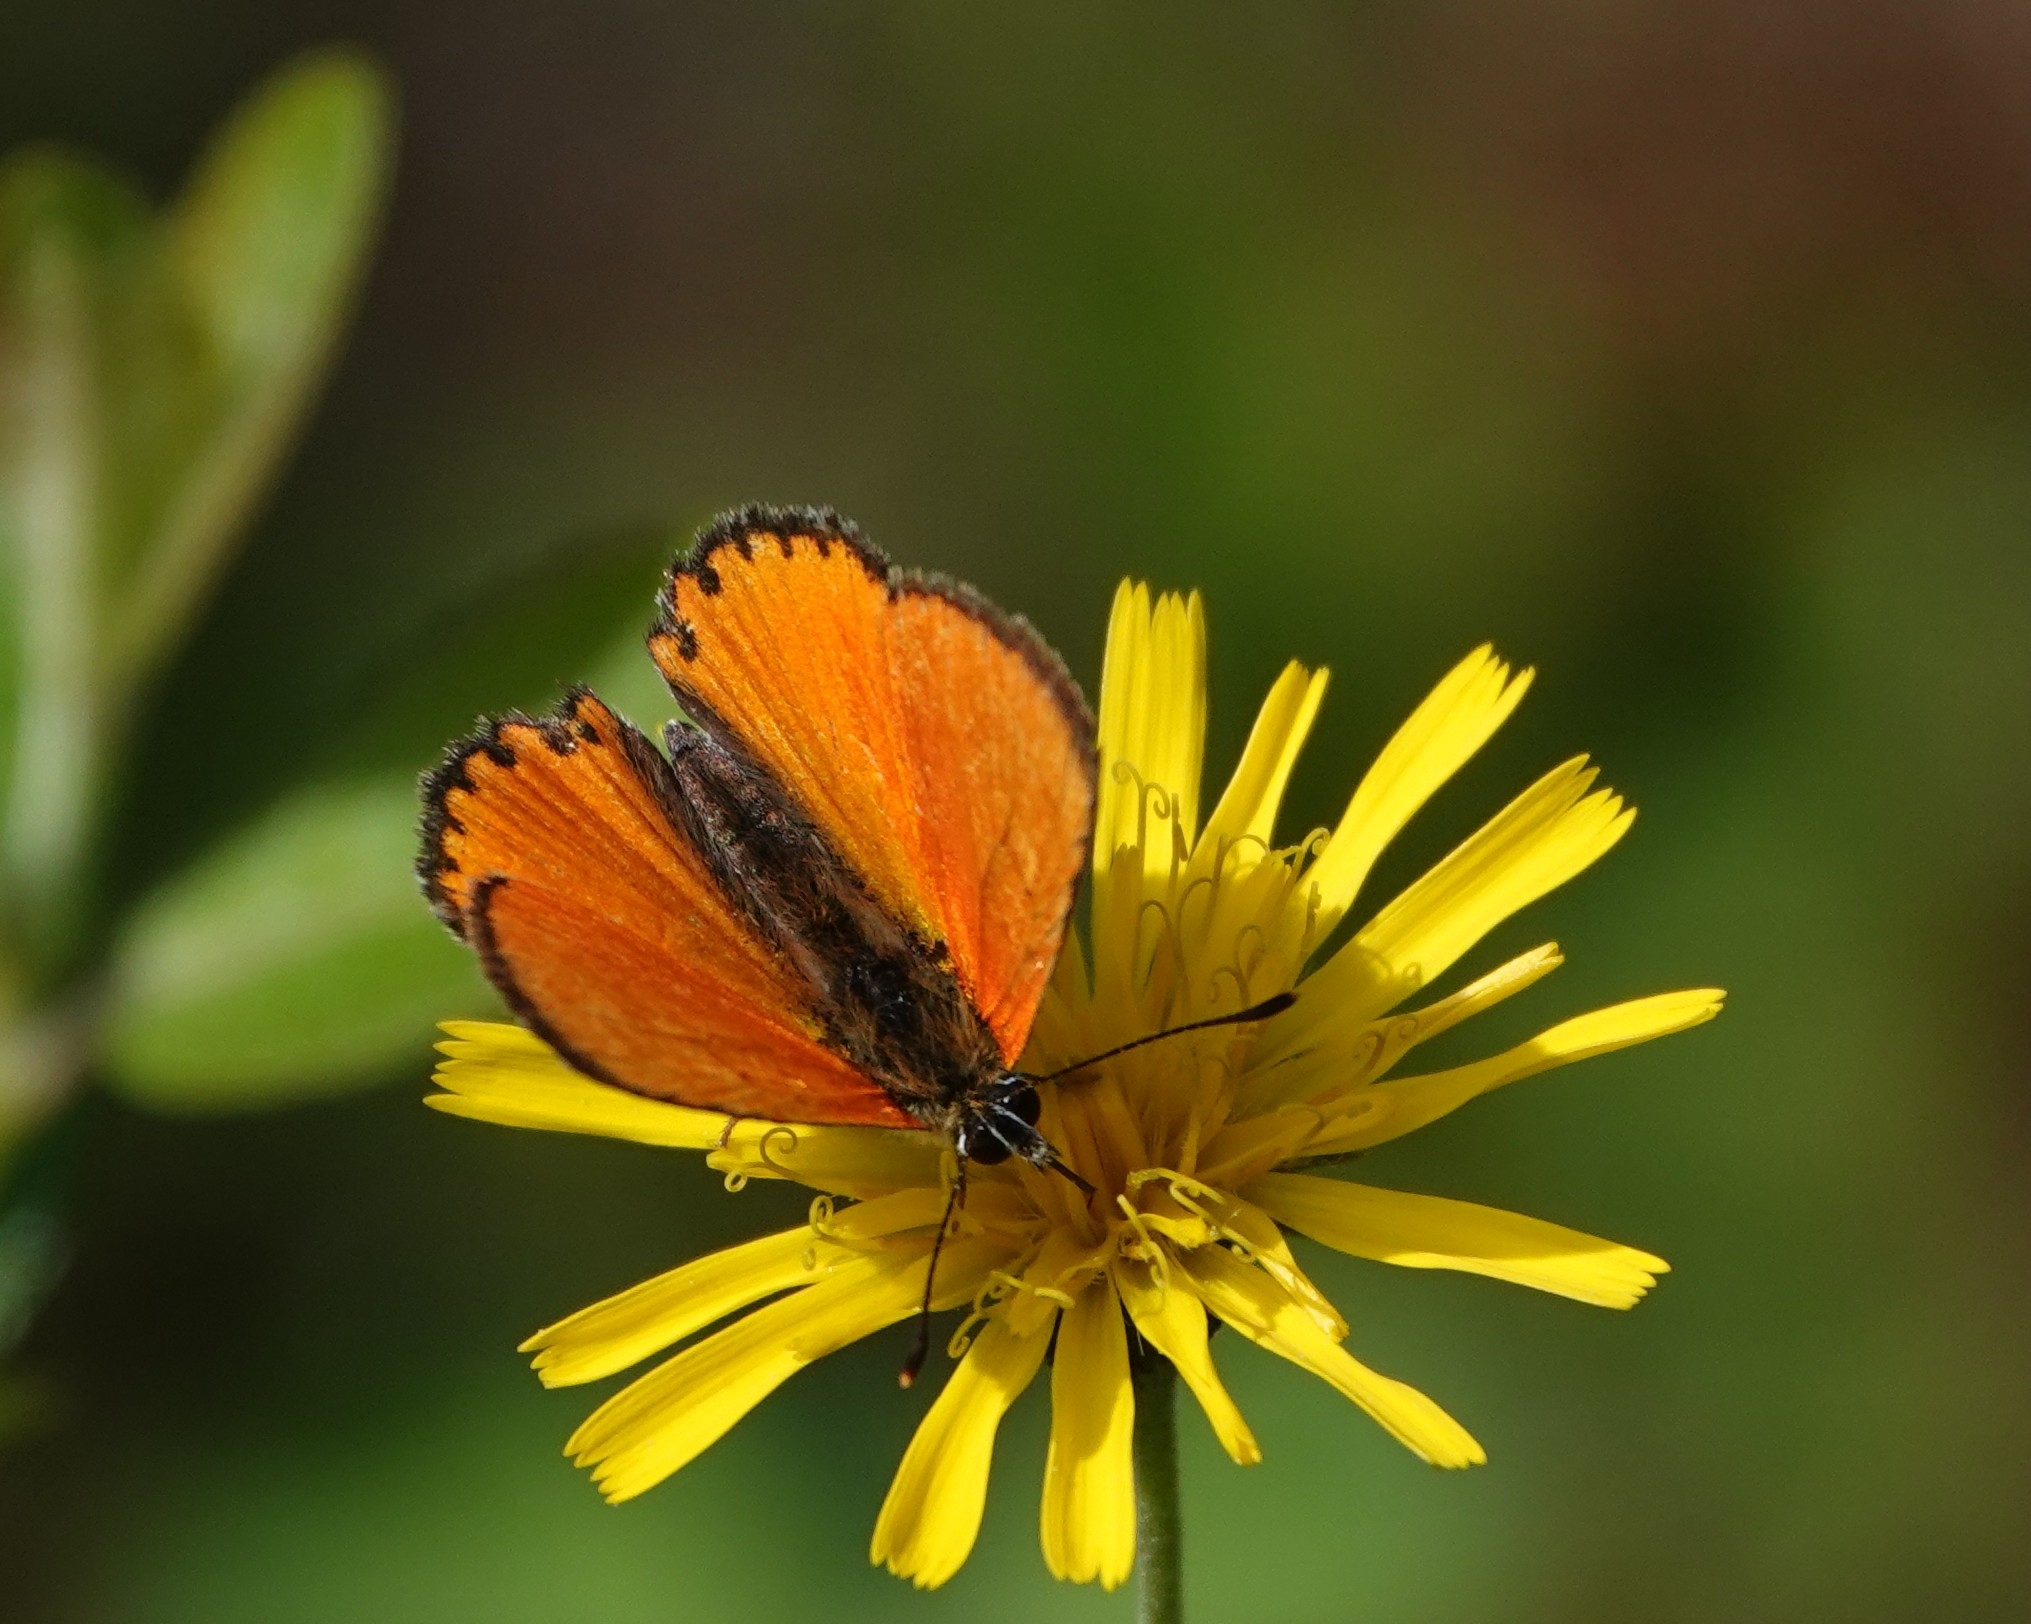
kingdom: Animalia
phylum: Arthropoda
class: Insecta
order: Lepidoptera
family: Lycaenidae
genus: Lycaena
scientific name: Lycaena virgaureae
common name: Scarce copper
